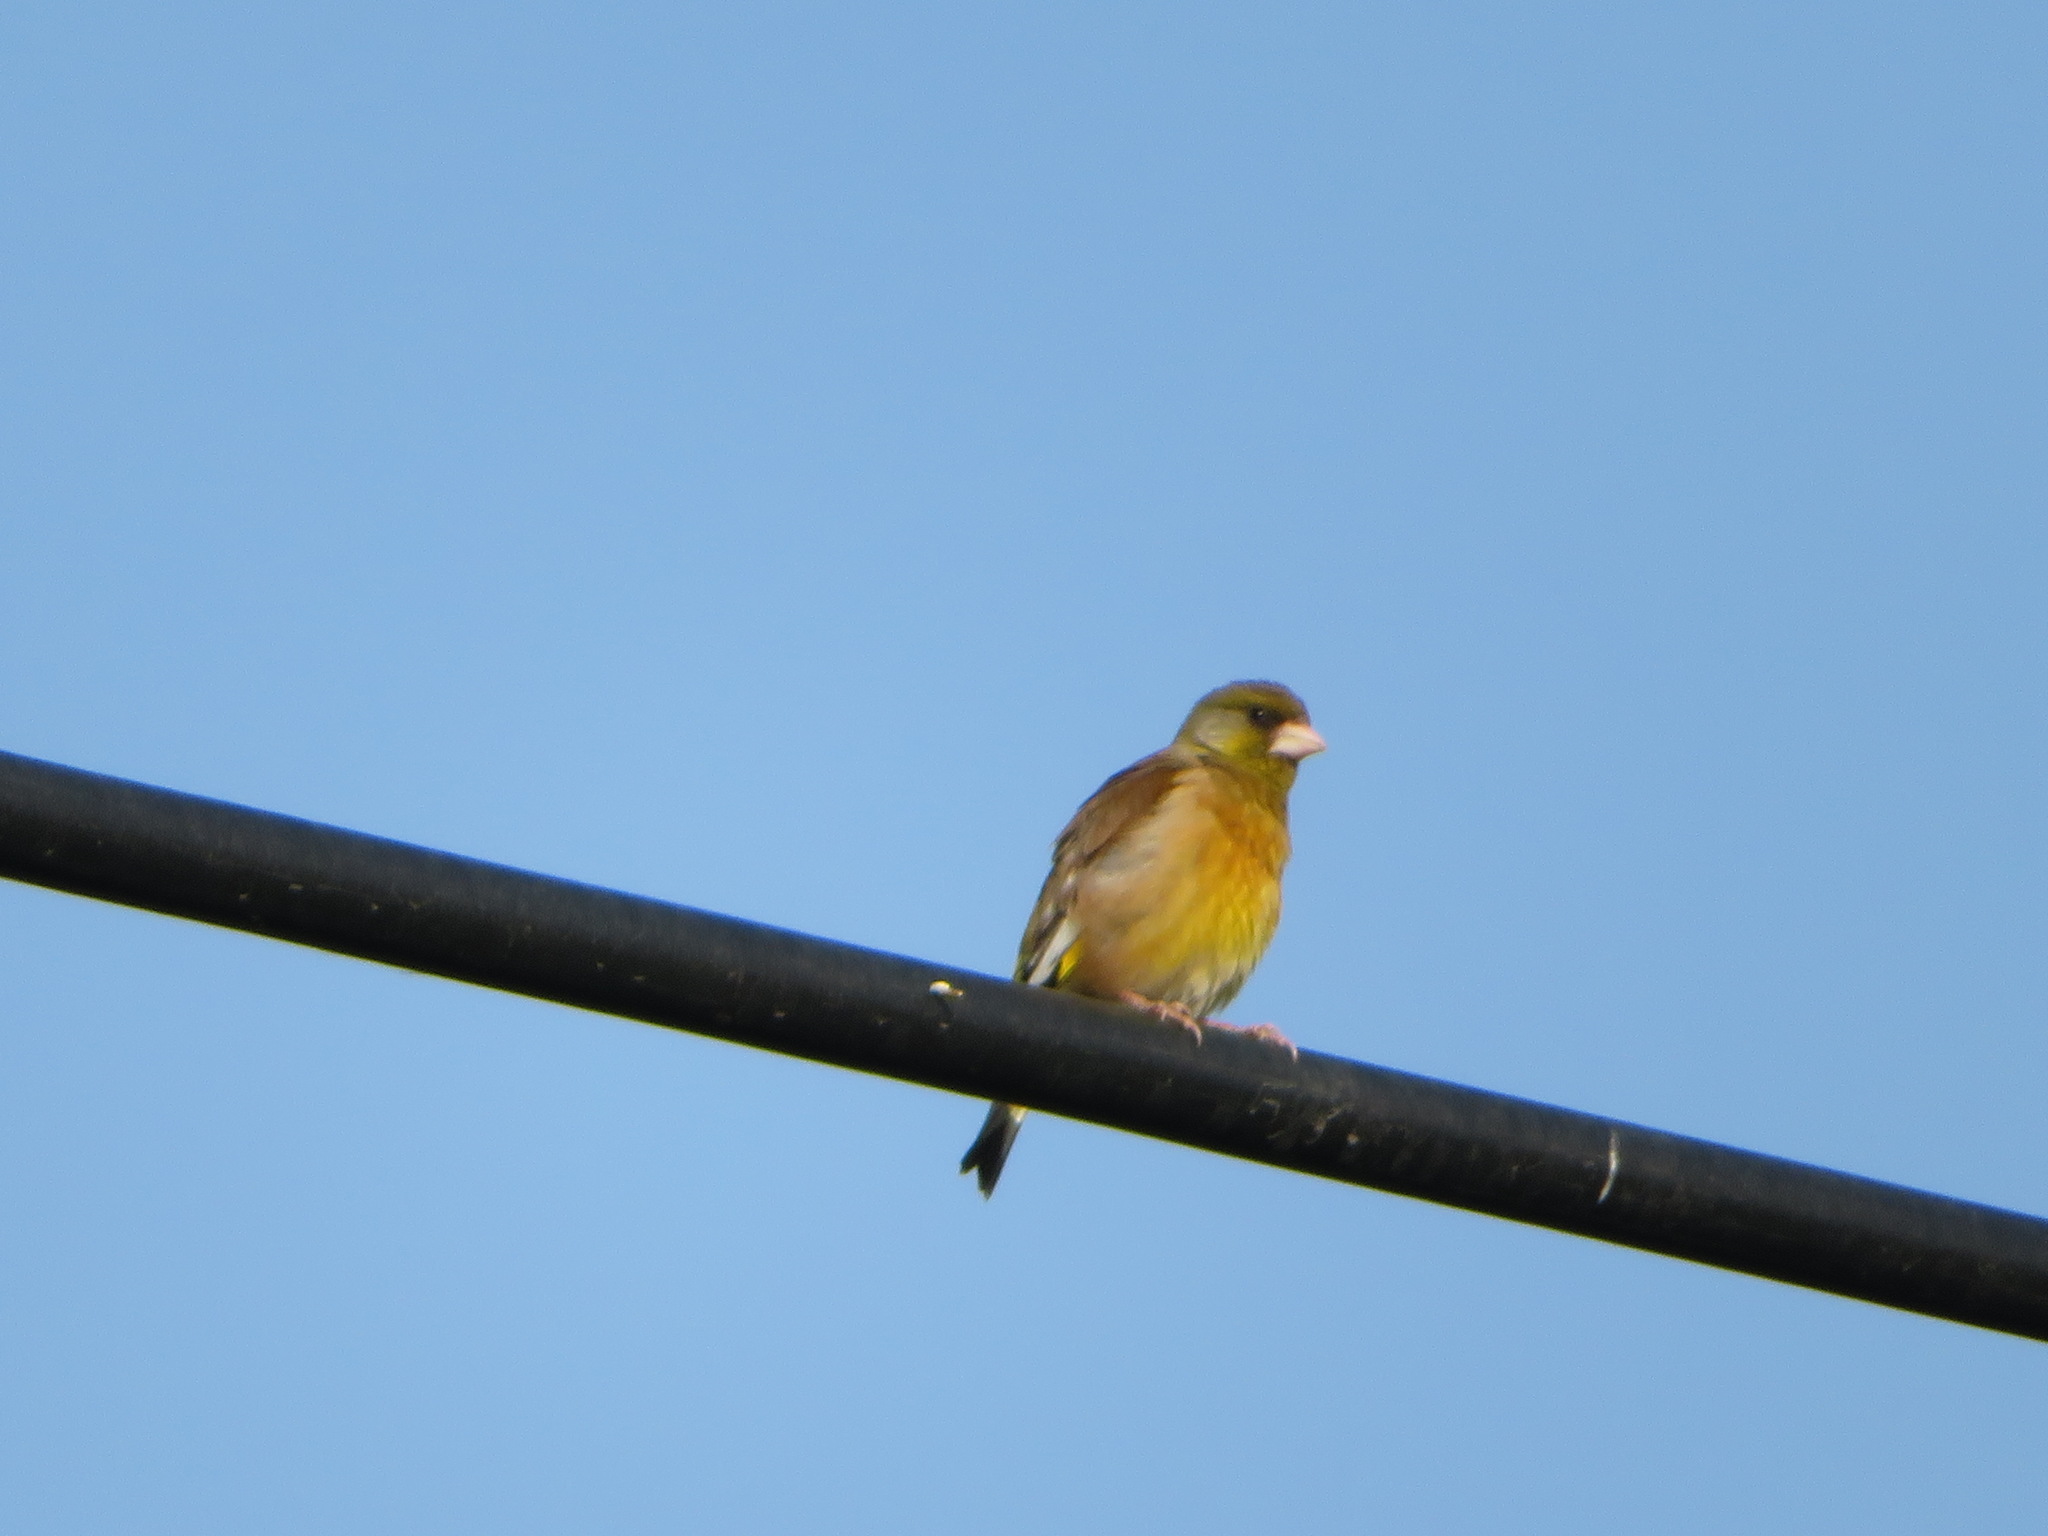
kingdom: Plantae
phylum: Tracheophyta
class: Liliopsida
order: Poales
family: Poaceae
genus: Chloris
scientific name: Chloris sinica
